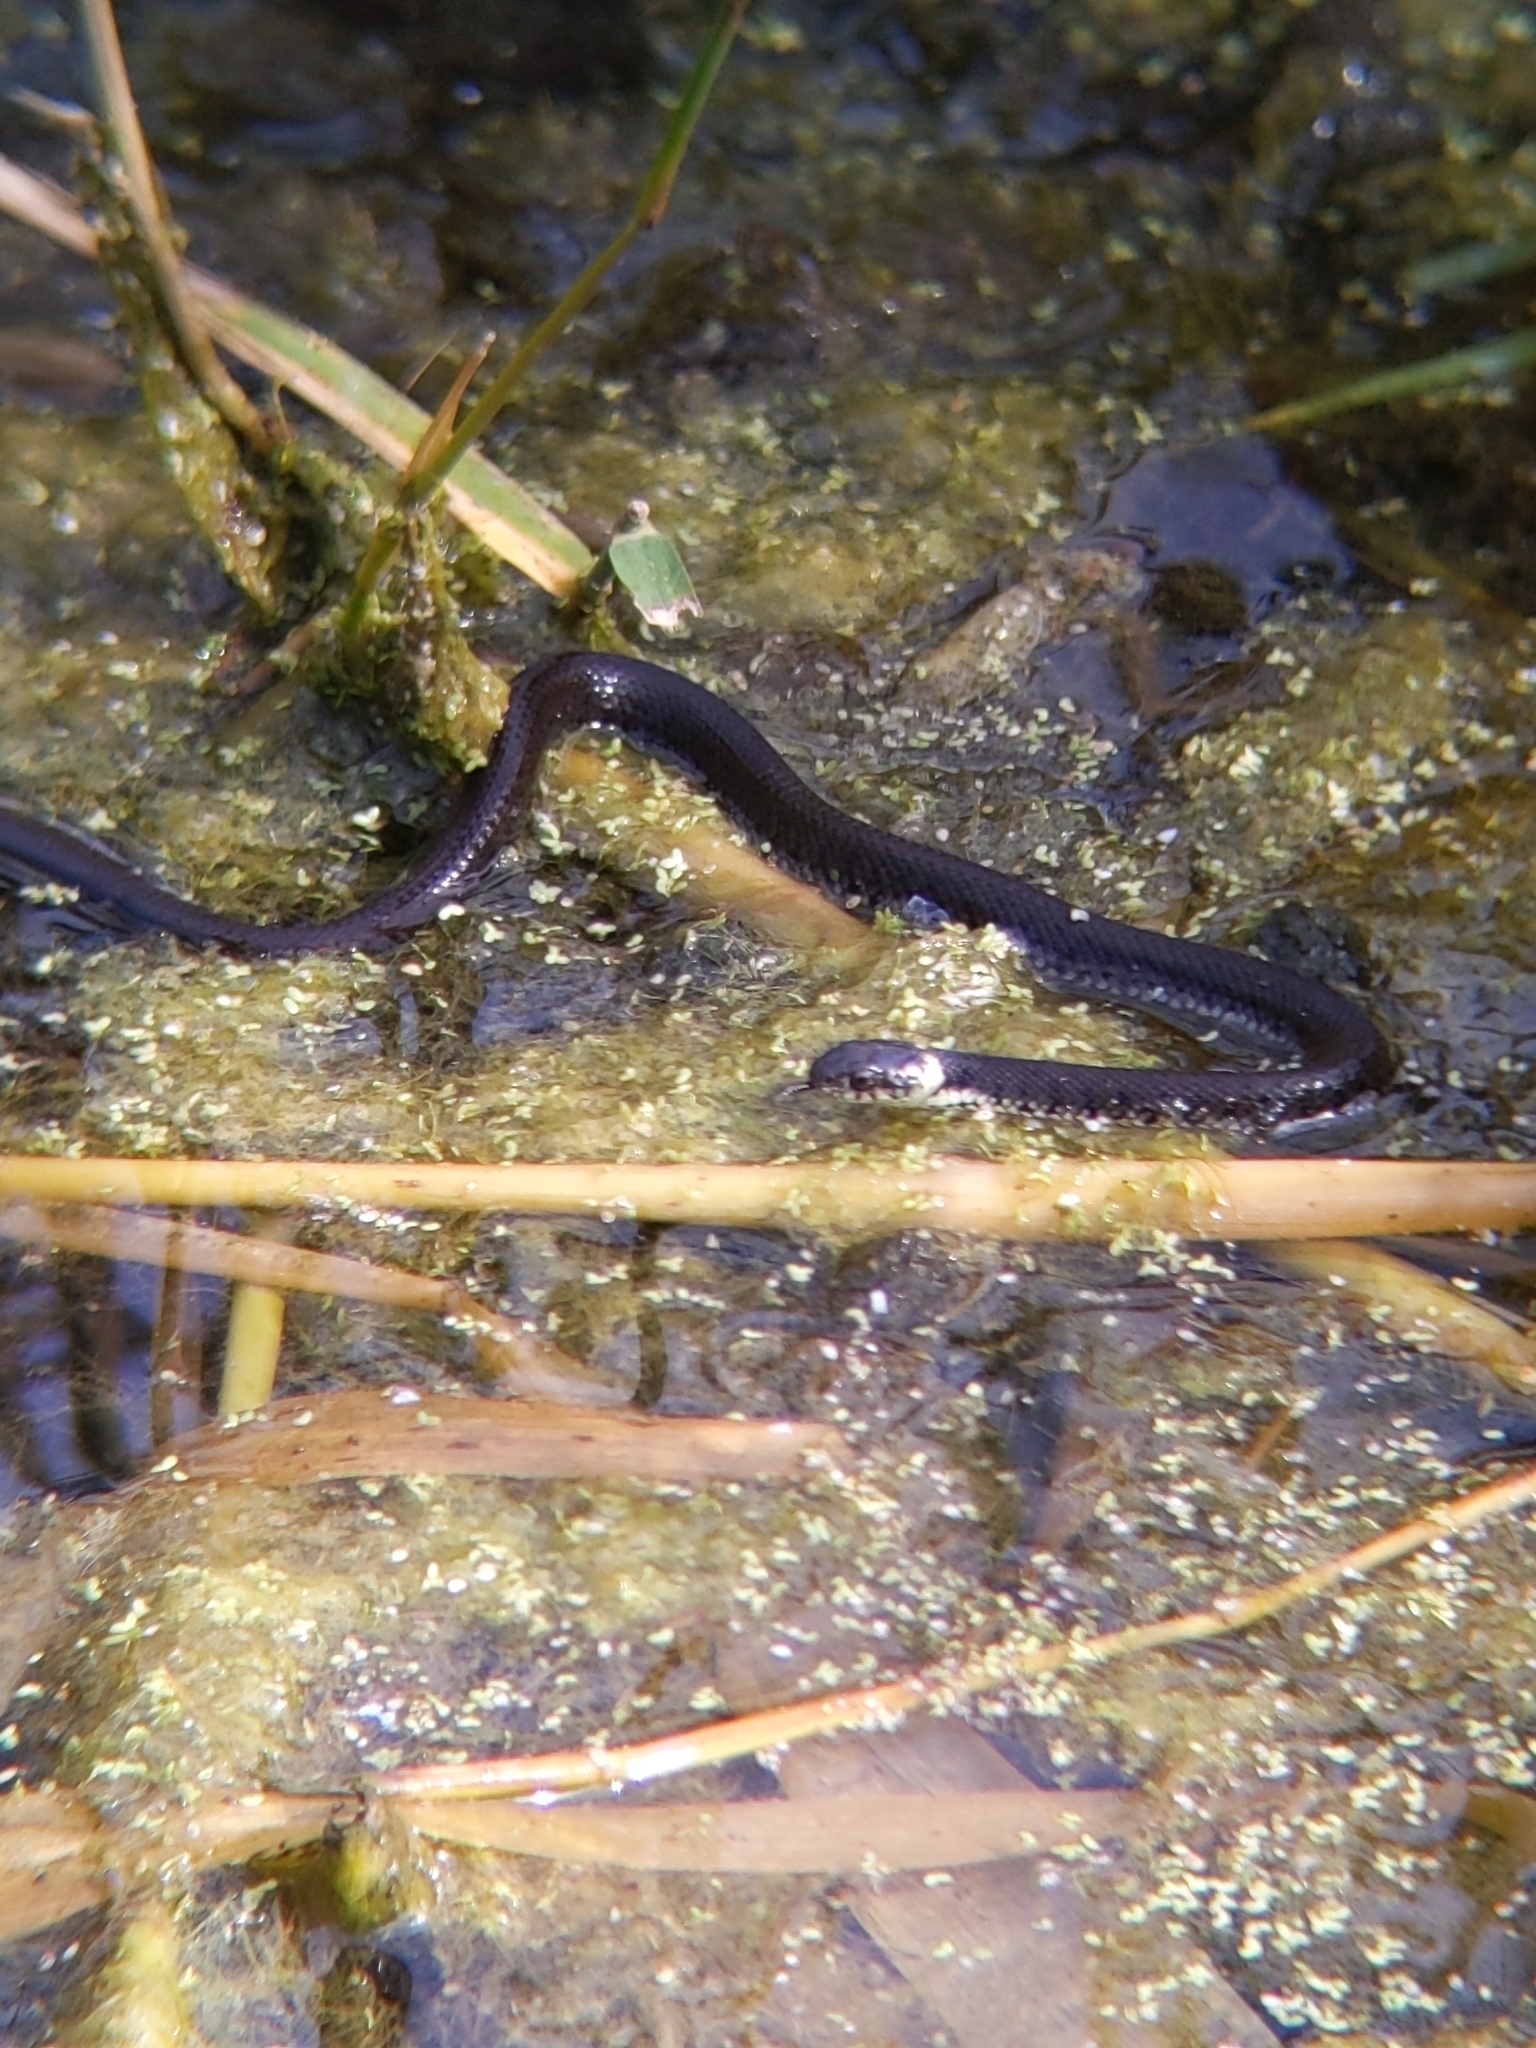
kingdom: Animalia
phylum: Chordata
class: Squamata
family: Colubridae
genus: Natrix
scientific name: Natrix helvetica
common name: Banded grass snake
